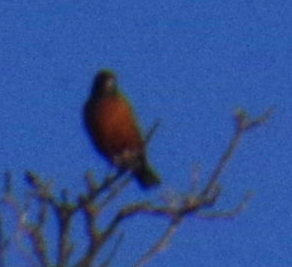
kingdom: Animalia
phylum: Chordata
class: Aves
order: Passeriformes
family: Turdidae
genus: Turdus
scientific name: Turdus migratorius
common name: American robin
